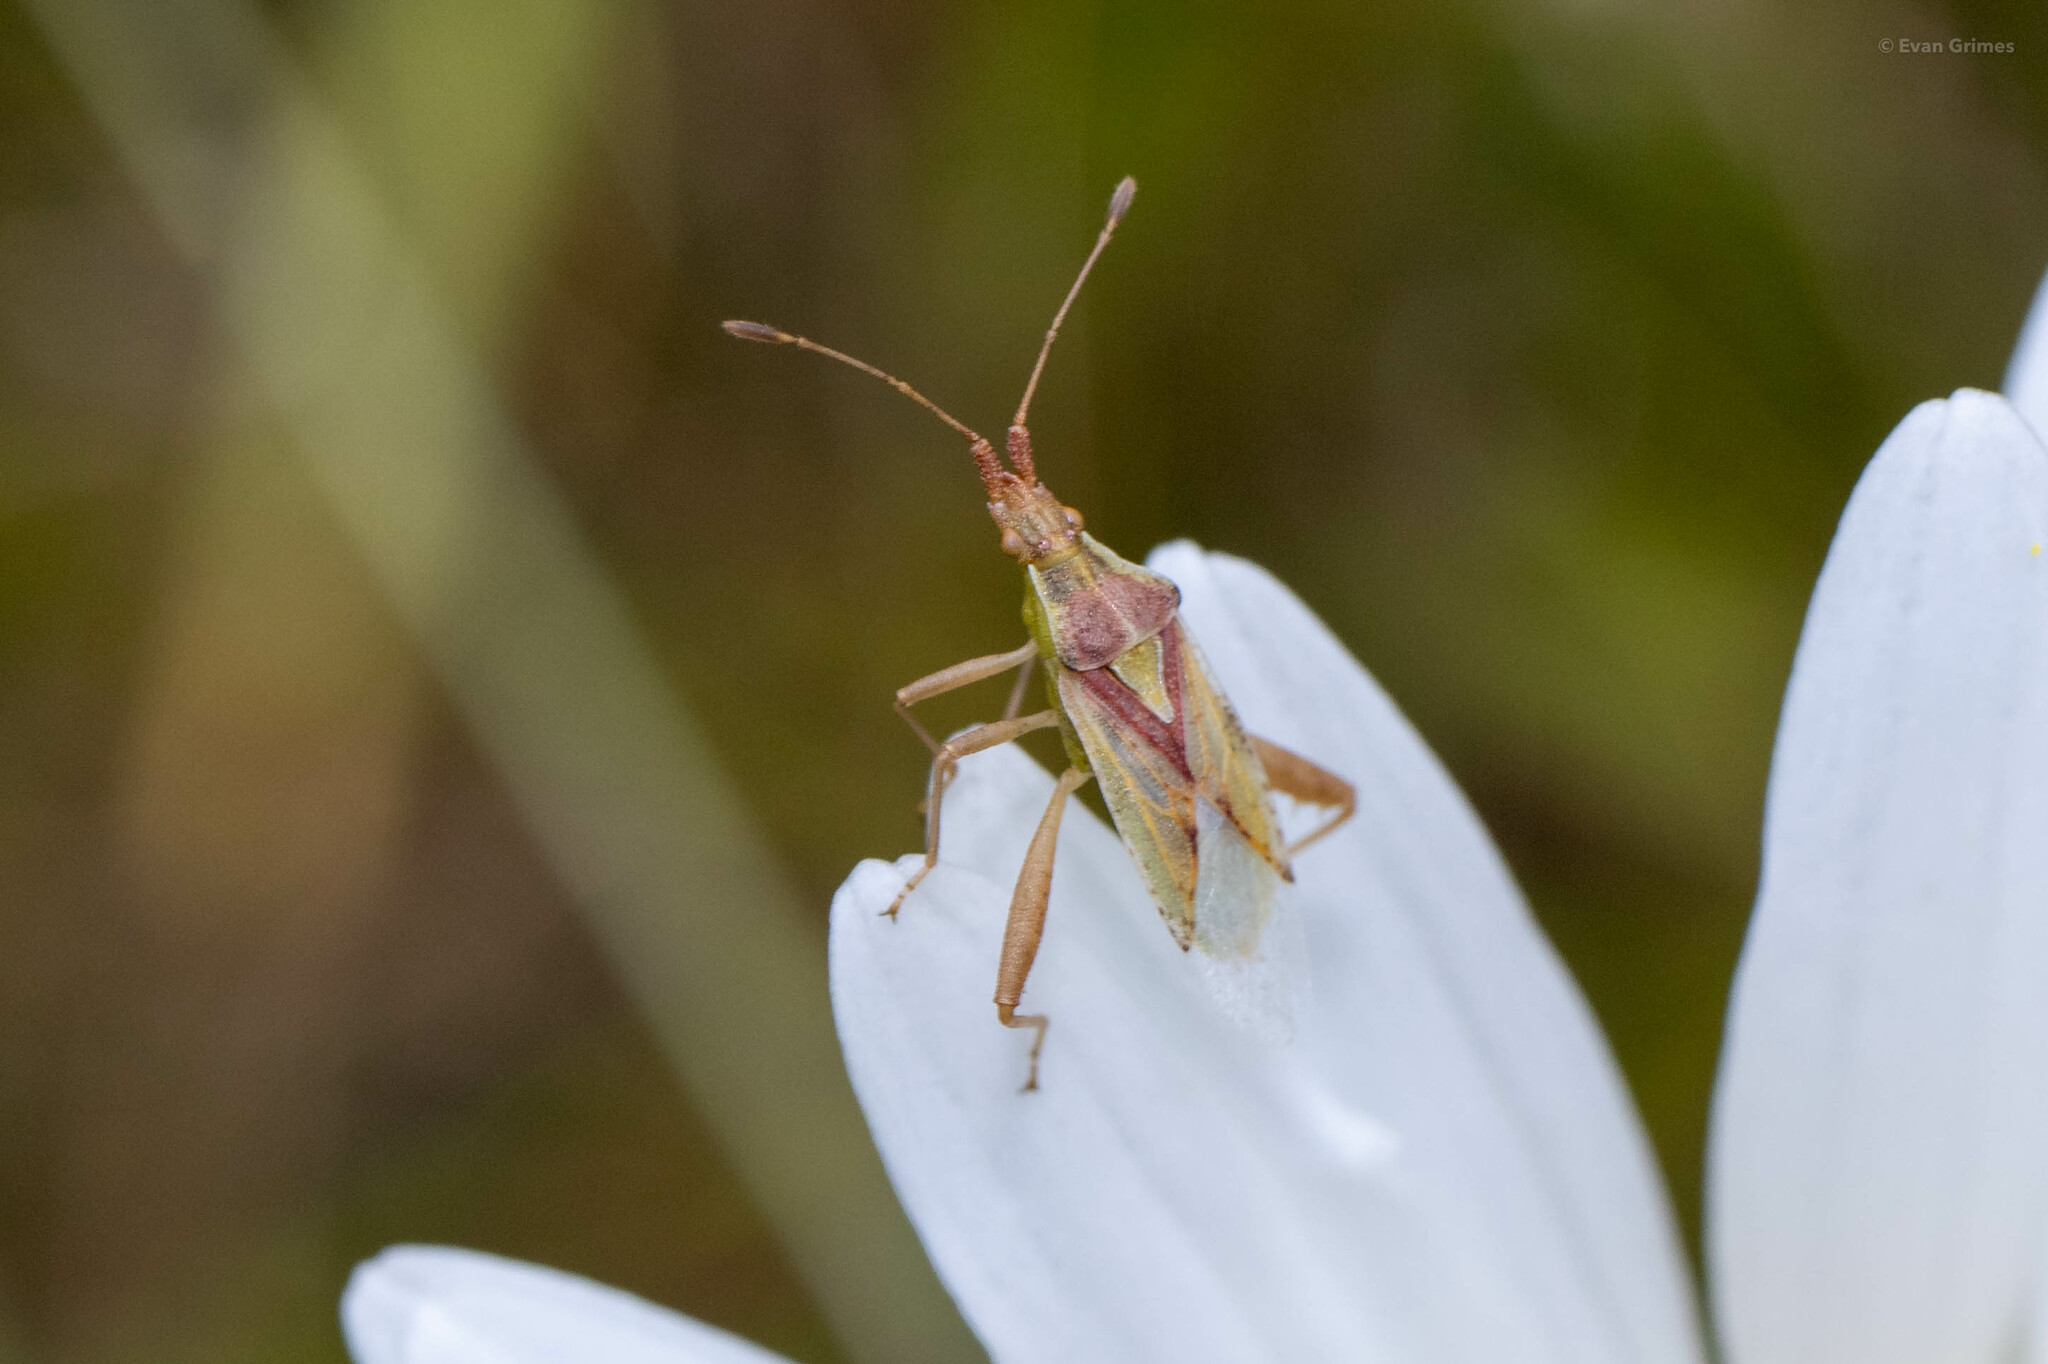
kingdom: Animalia
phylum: Arthropoda
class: Insecta
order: Hemiptera
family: Rhopalidae
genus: Harmostes
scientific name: Harmostes reflexulus
